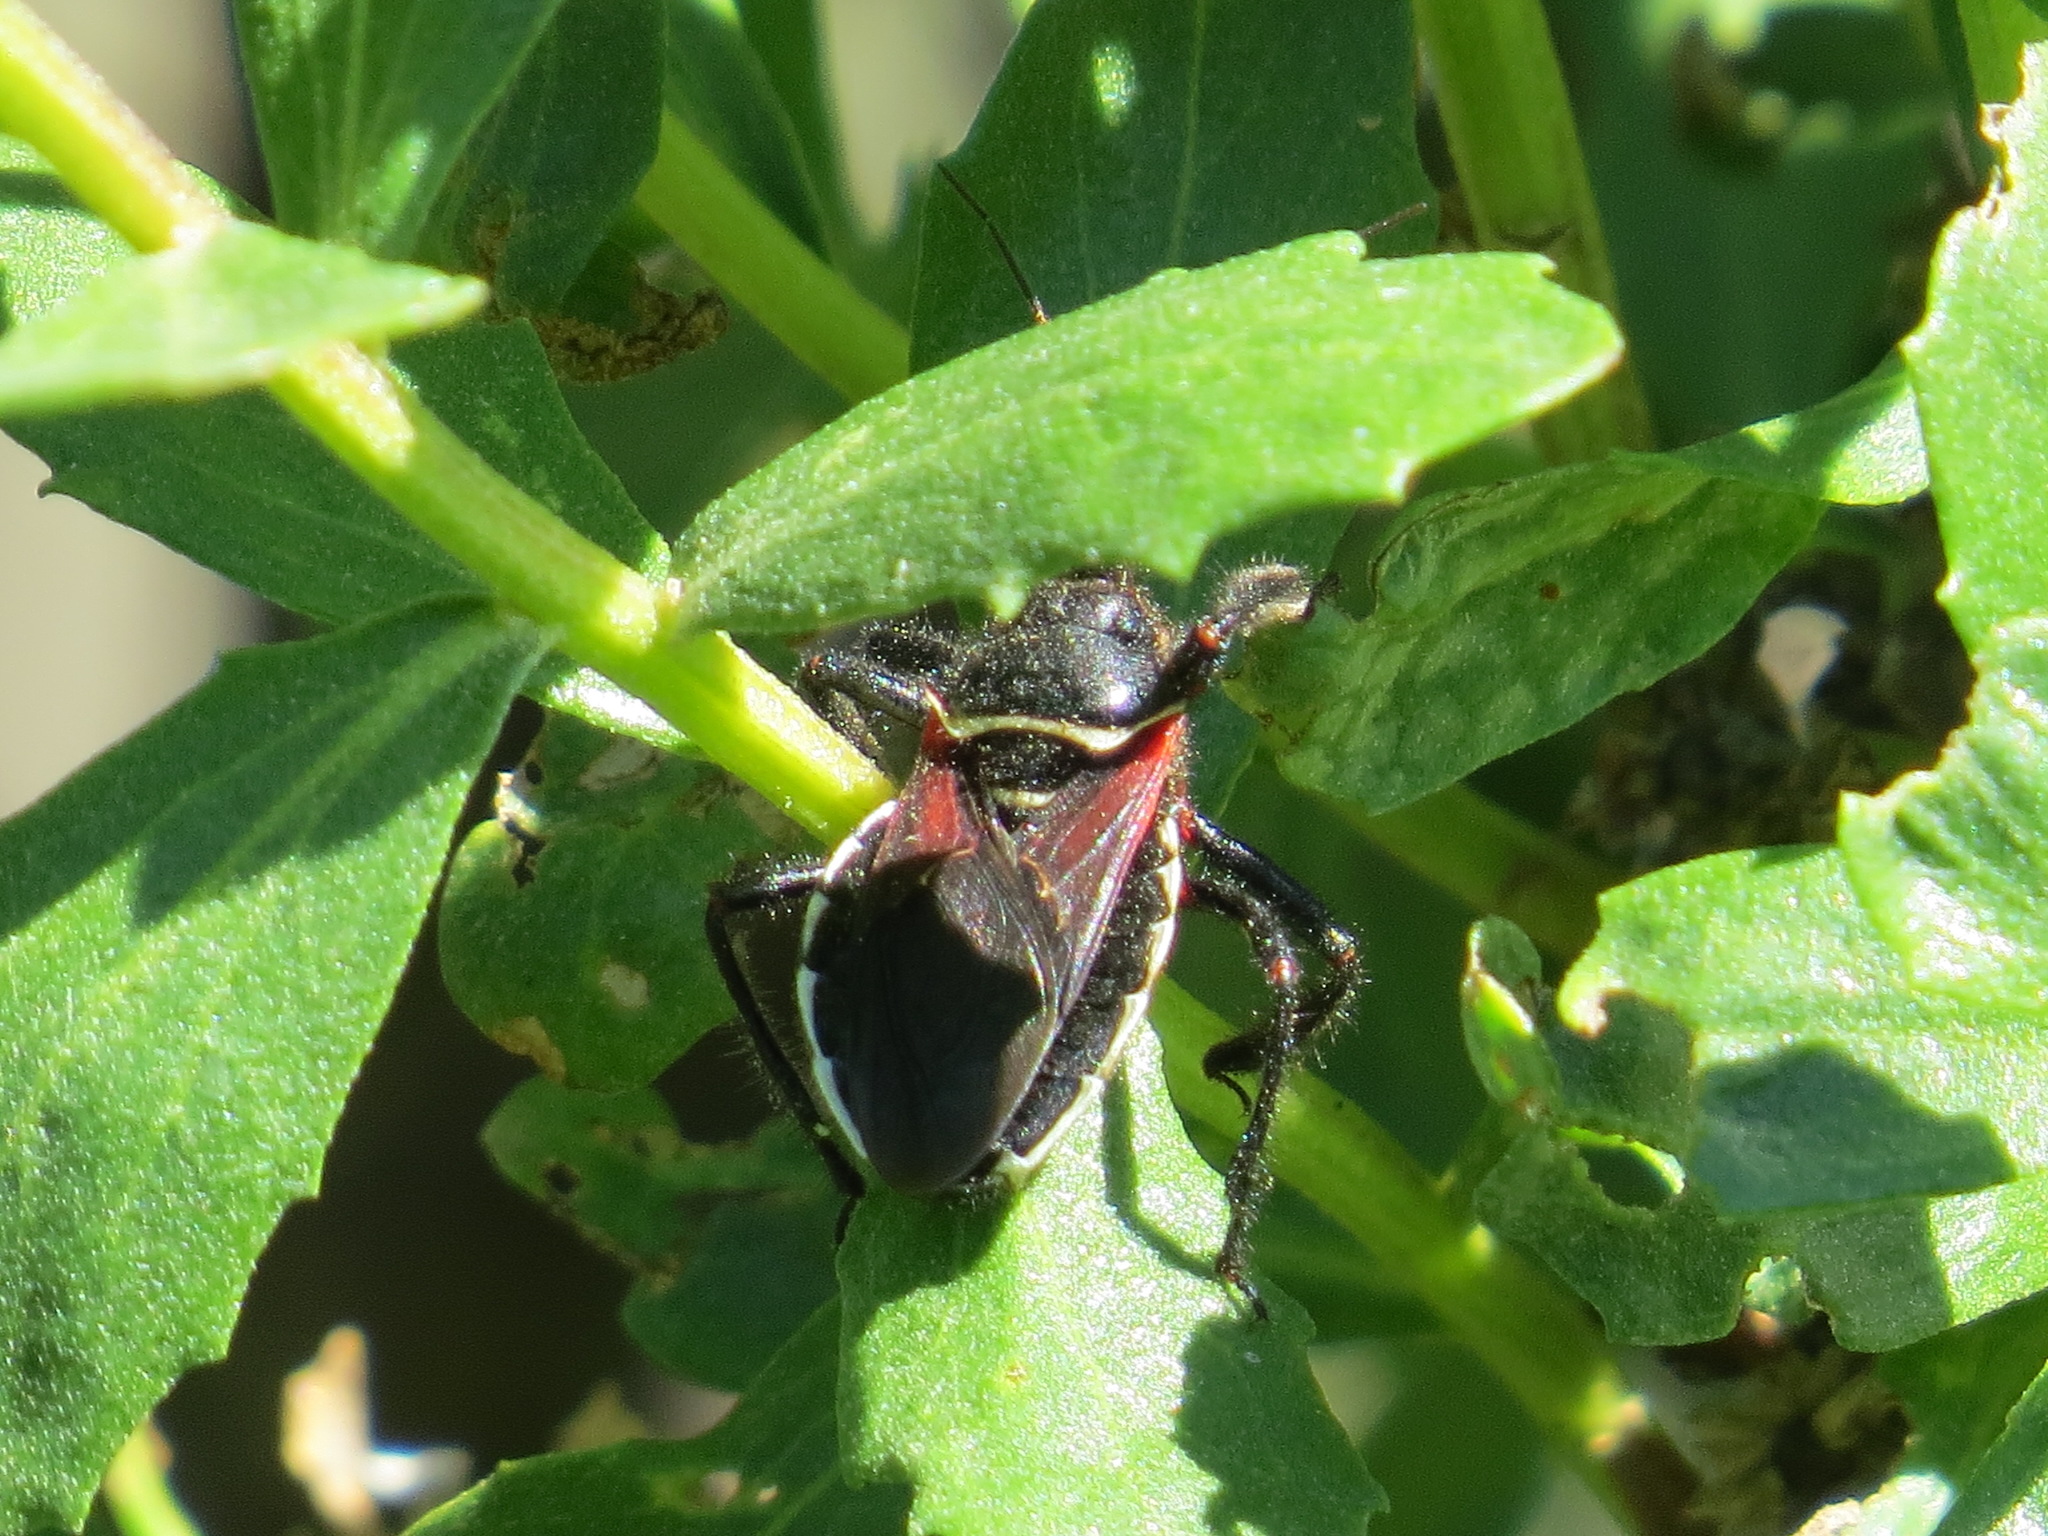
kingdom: Animalia
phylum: Arthropoda
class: Insecta
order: Hemiptera
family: Reduviidae
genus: Apiomerus
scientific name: Apiomerus californicus
